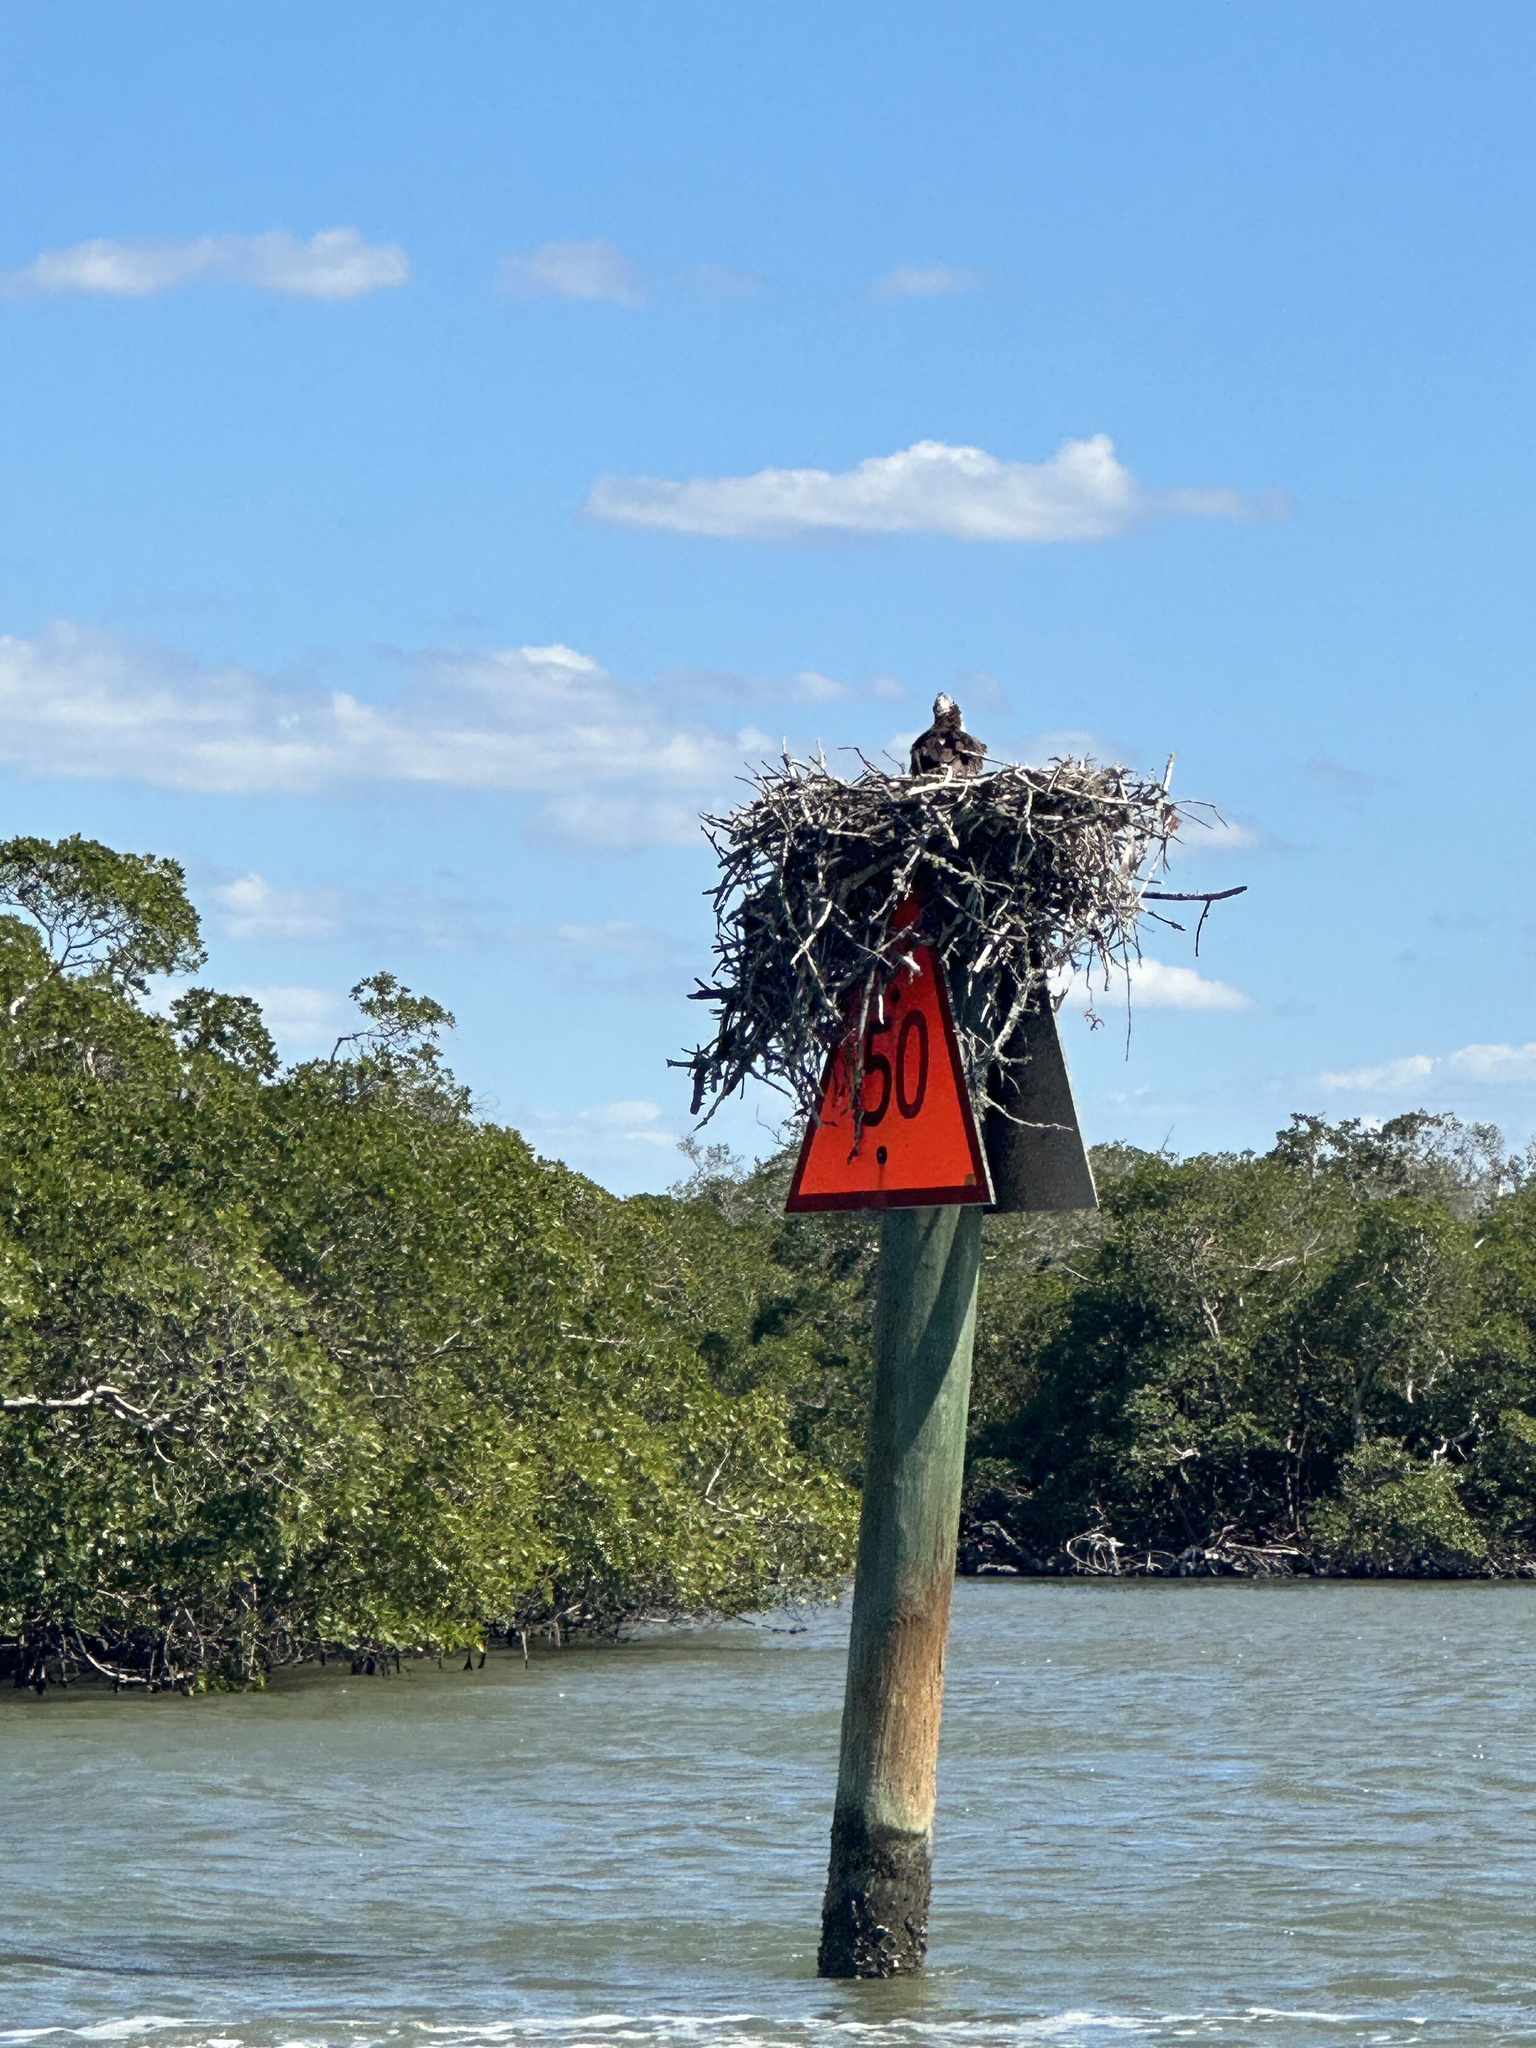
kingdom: Animalia
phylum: Chordata
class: Aves
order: Accipitriformes
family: Pandionidae
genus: Pandion
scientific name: Pandion haliaetus
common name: Osprey
